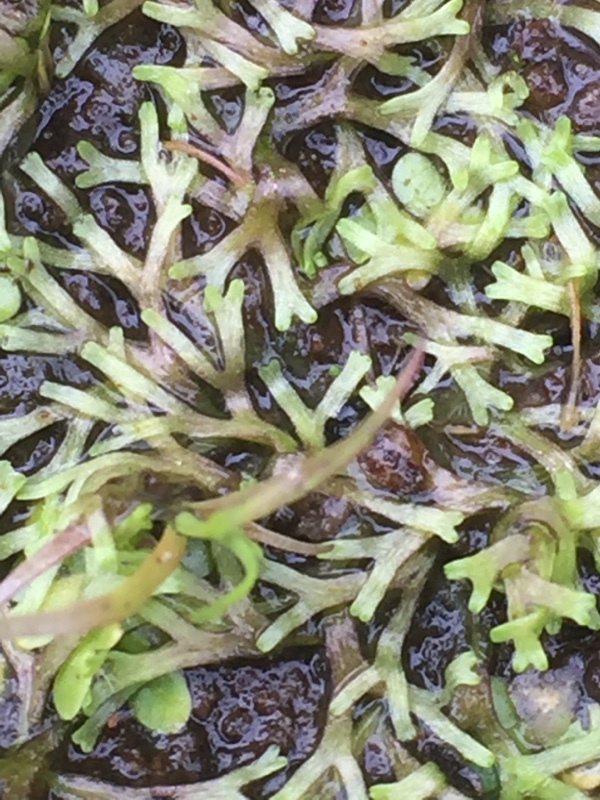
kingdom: Plantae
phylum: Marchantiophyta
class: Marchantiopsida
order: Marchantiales
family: Ricciaceae
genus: Riccia
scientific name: Riccia fluitans
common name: Floating crystalwort
